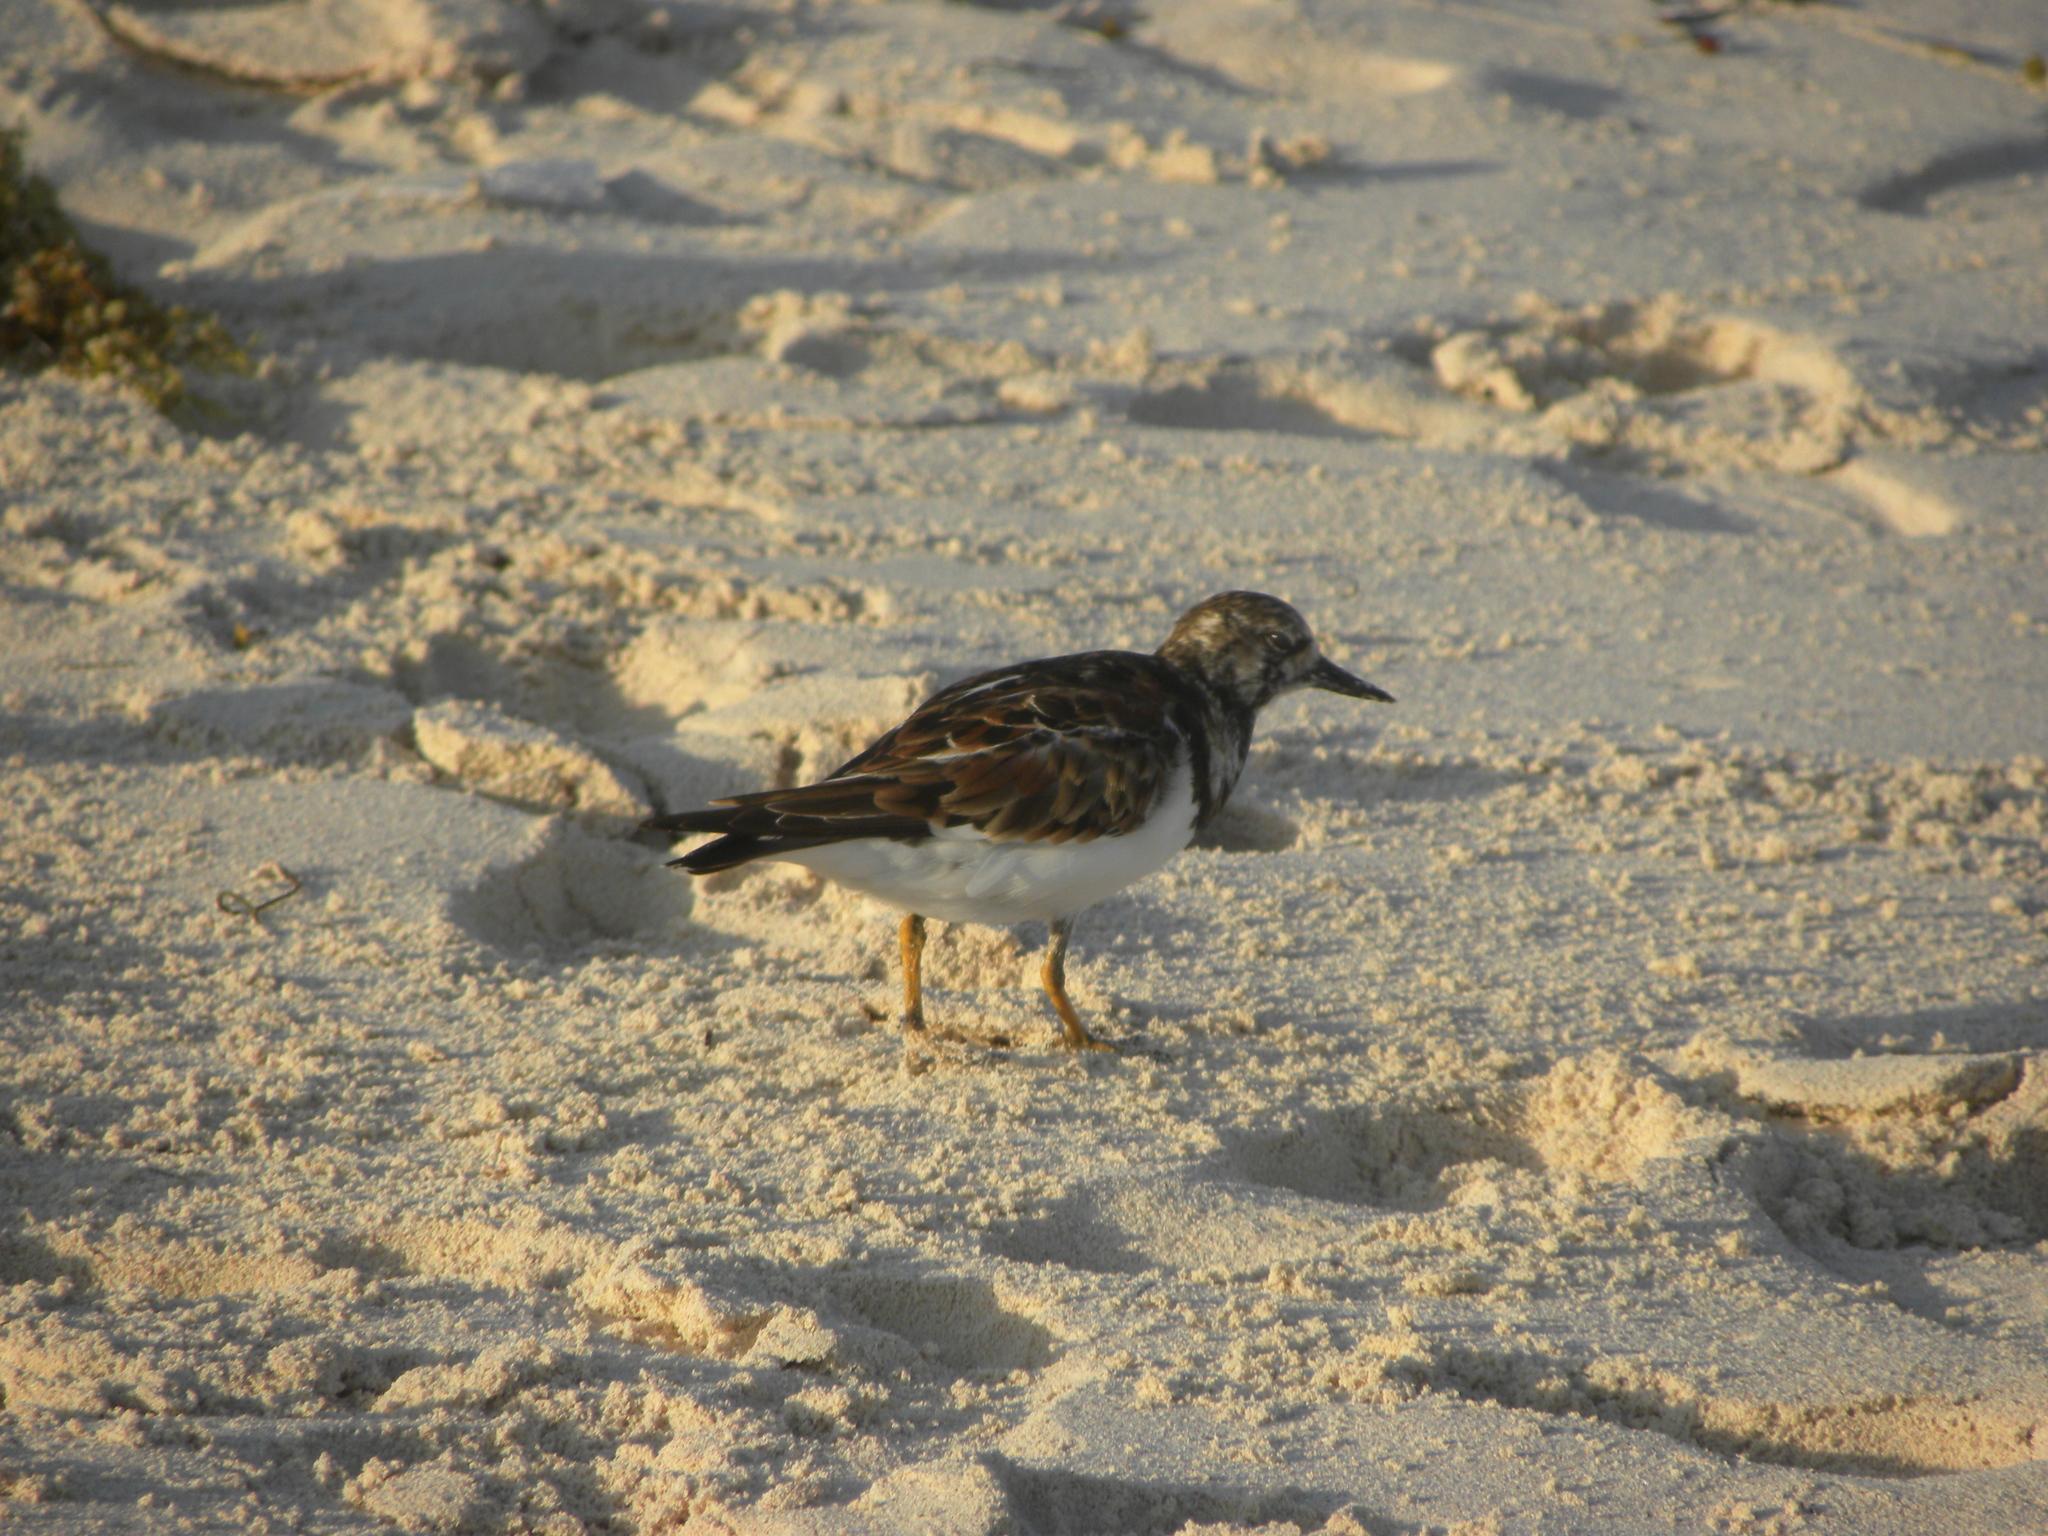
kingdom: Animalia
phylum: Chordata
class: Aves
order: Charadriiformes
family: Scolopacidae
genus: Arenaria
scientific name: Arenaria interpres
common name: Ruddy turnstone
